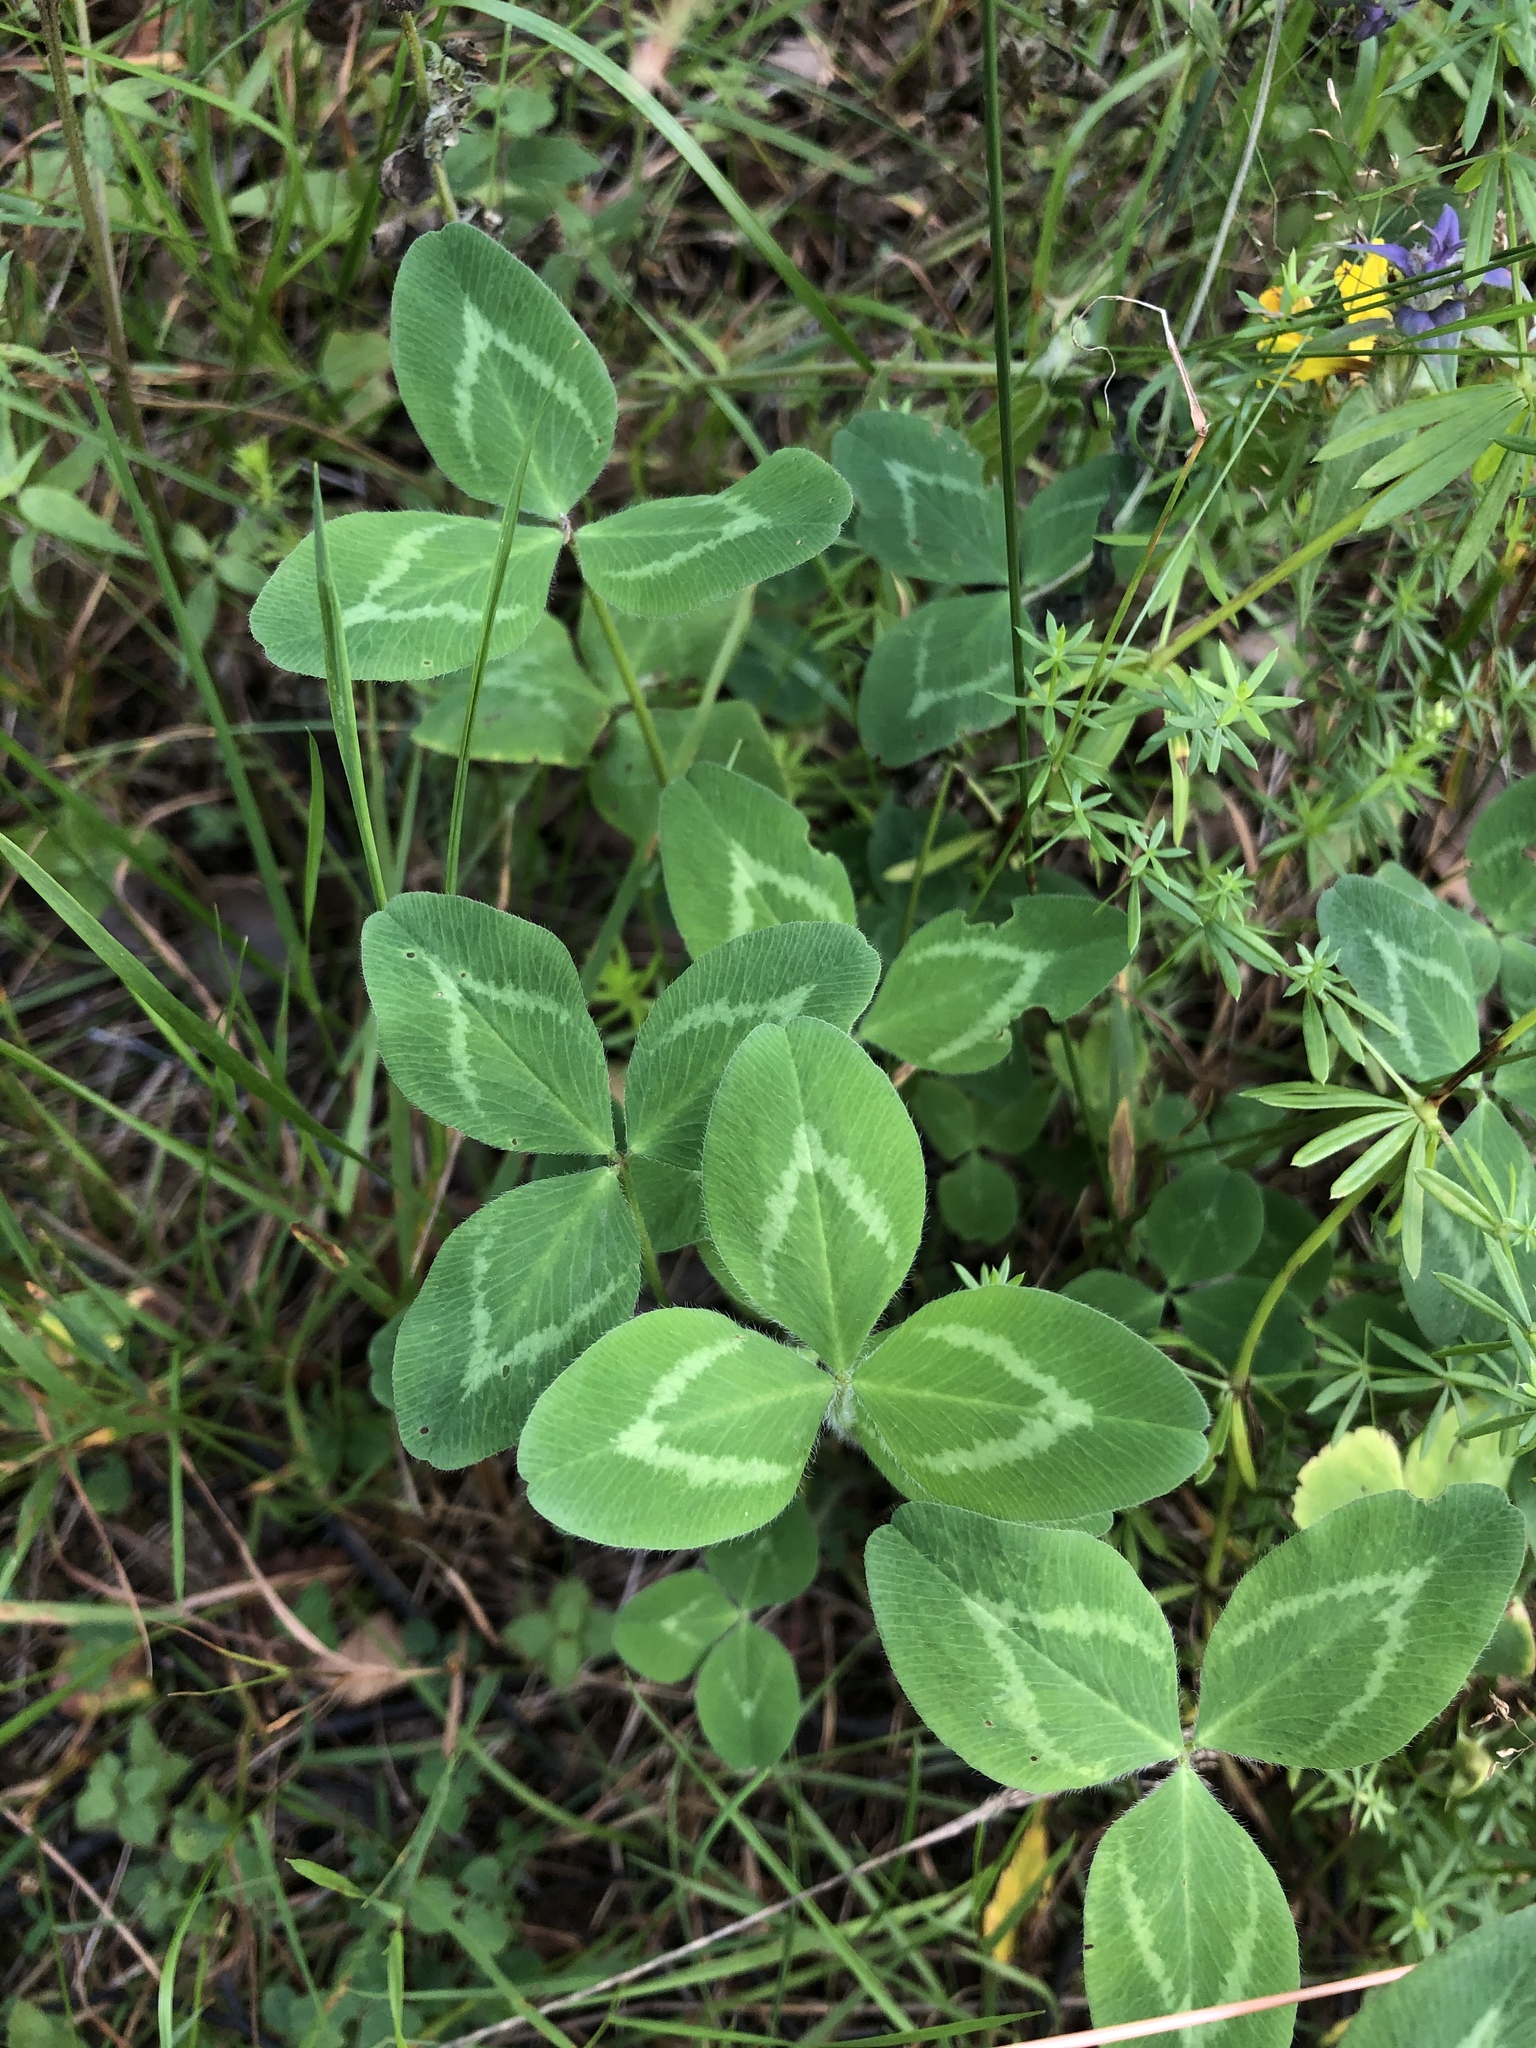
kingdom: Plantae
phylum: Tracheophyta
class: Magnoliopsida
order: Fabales
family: Fabaceae
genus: Trifolium
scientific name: Trifolium pratense
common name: Red clover
